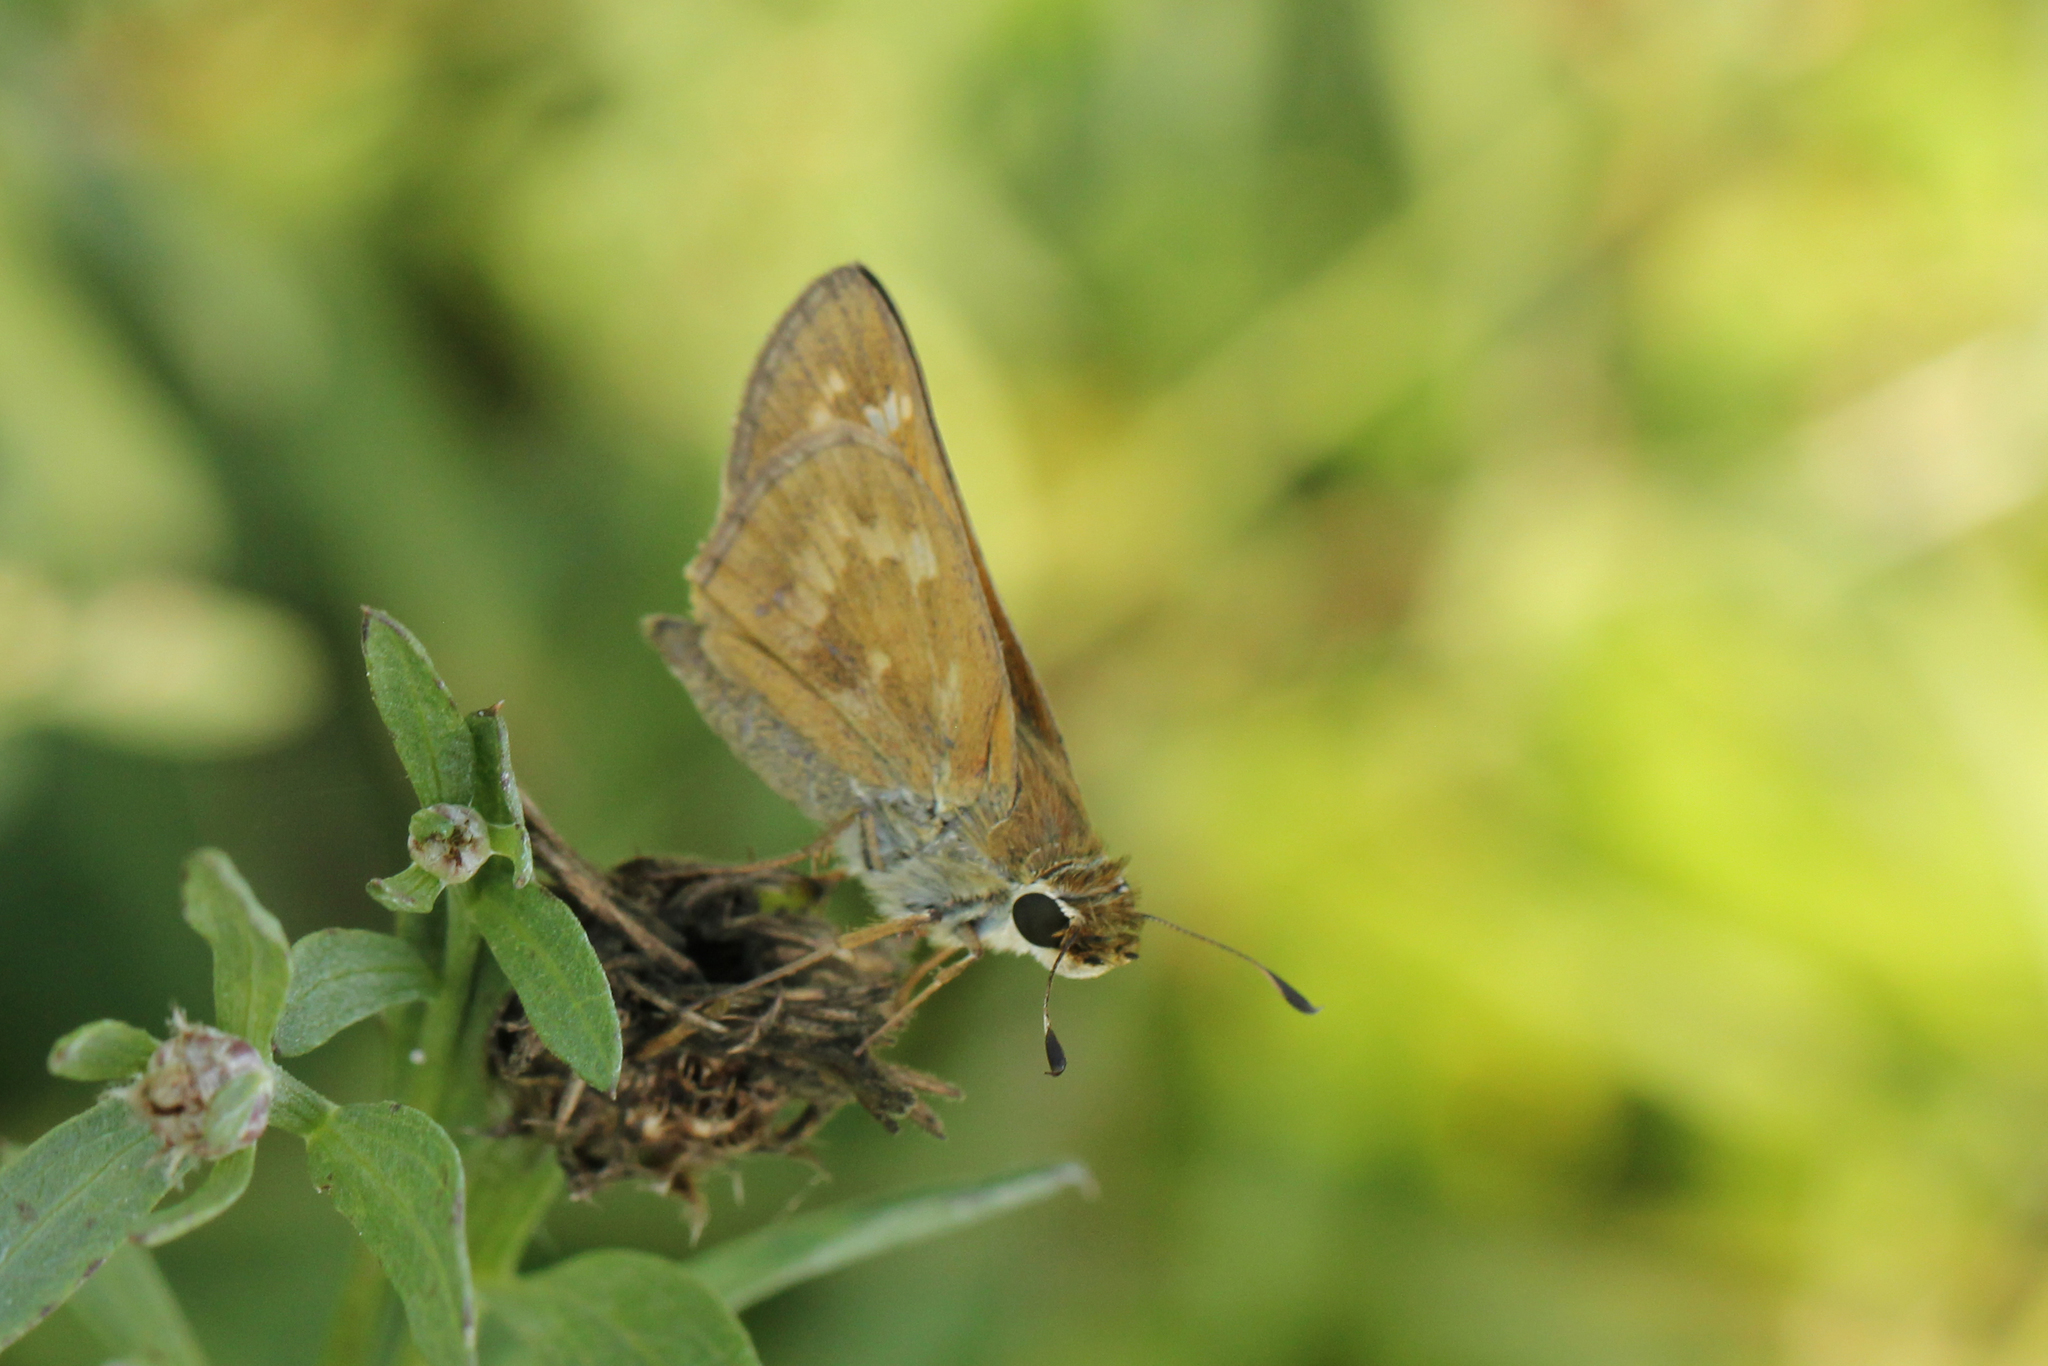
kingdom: Animalia
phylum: Arthropoda
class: Insecta
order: Lepidoptera
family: Hesperiidae
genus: Atalopedes
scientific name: Atalopedes
